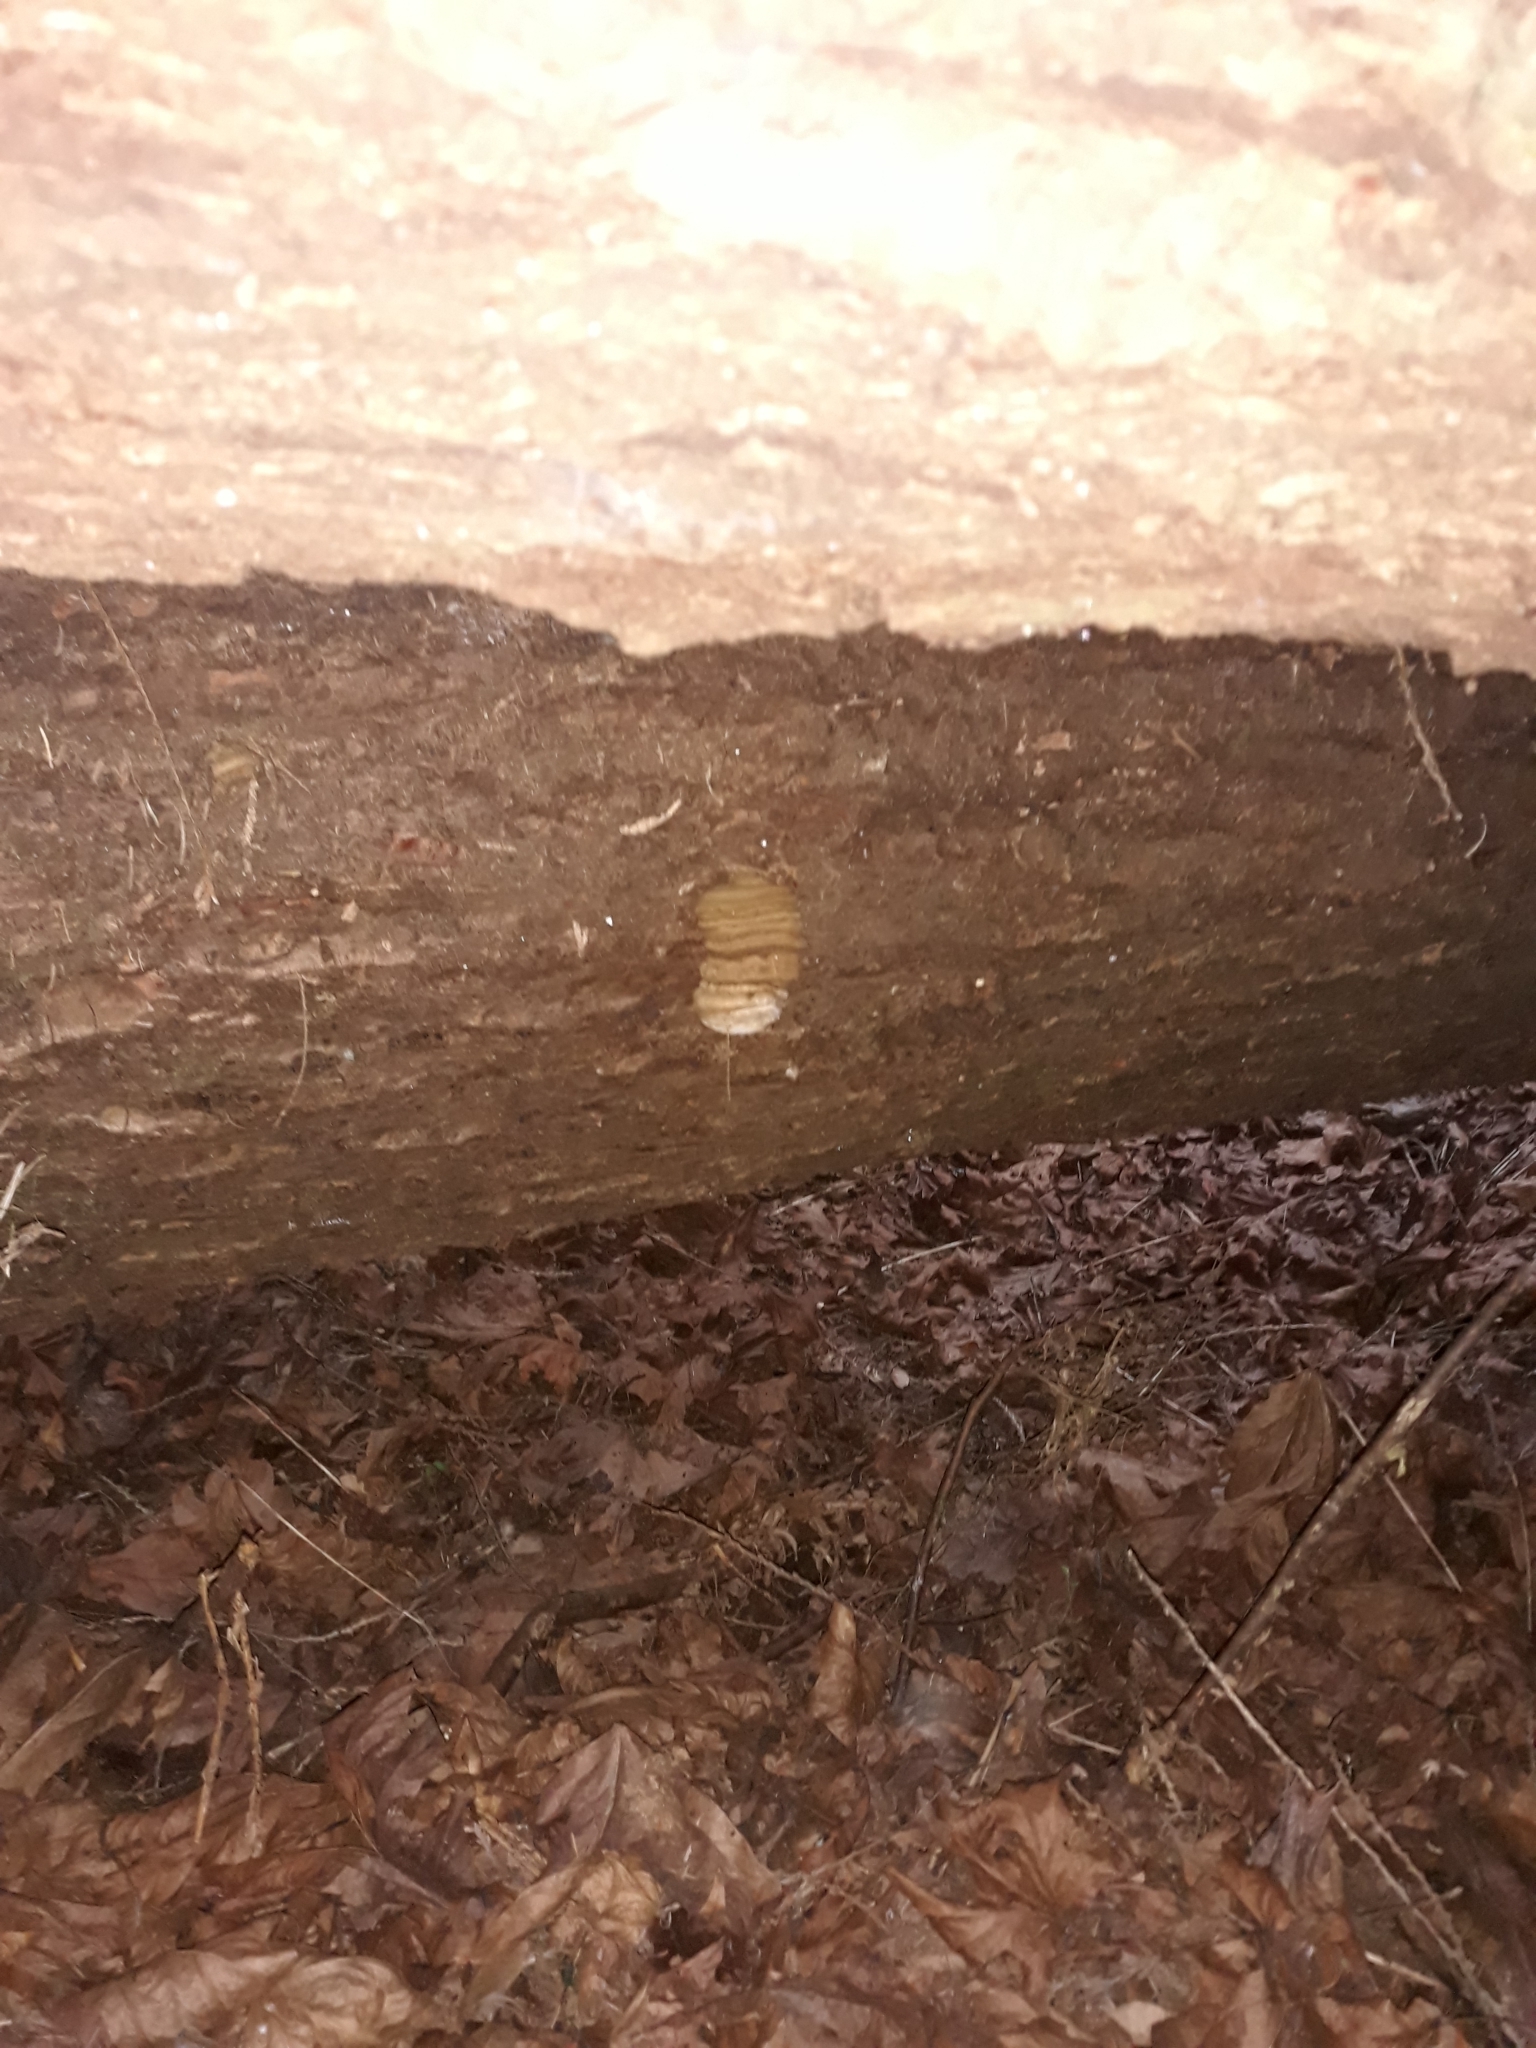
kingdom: Fungi
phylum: Basidiomycota
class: Agaricomycetes
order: Polyporales
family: Fomitopsidaceae
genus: Fomitopsis
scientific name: Fomitopsis officinalis
